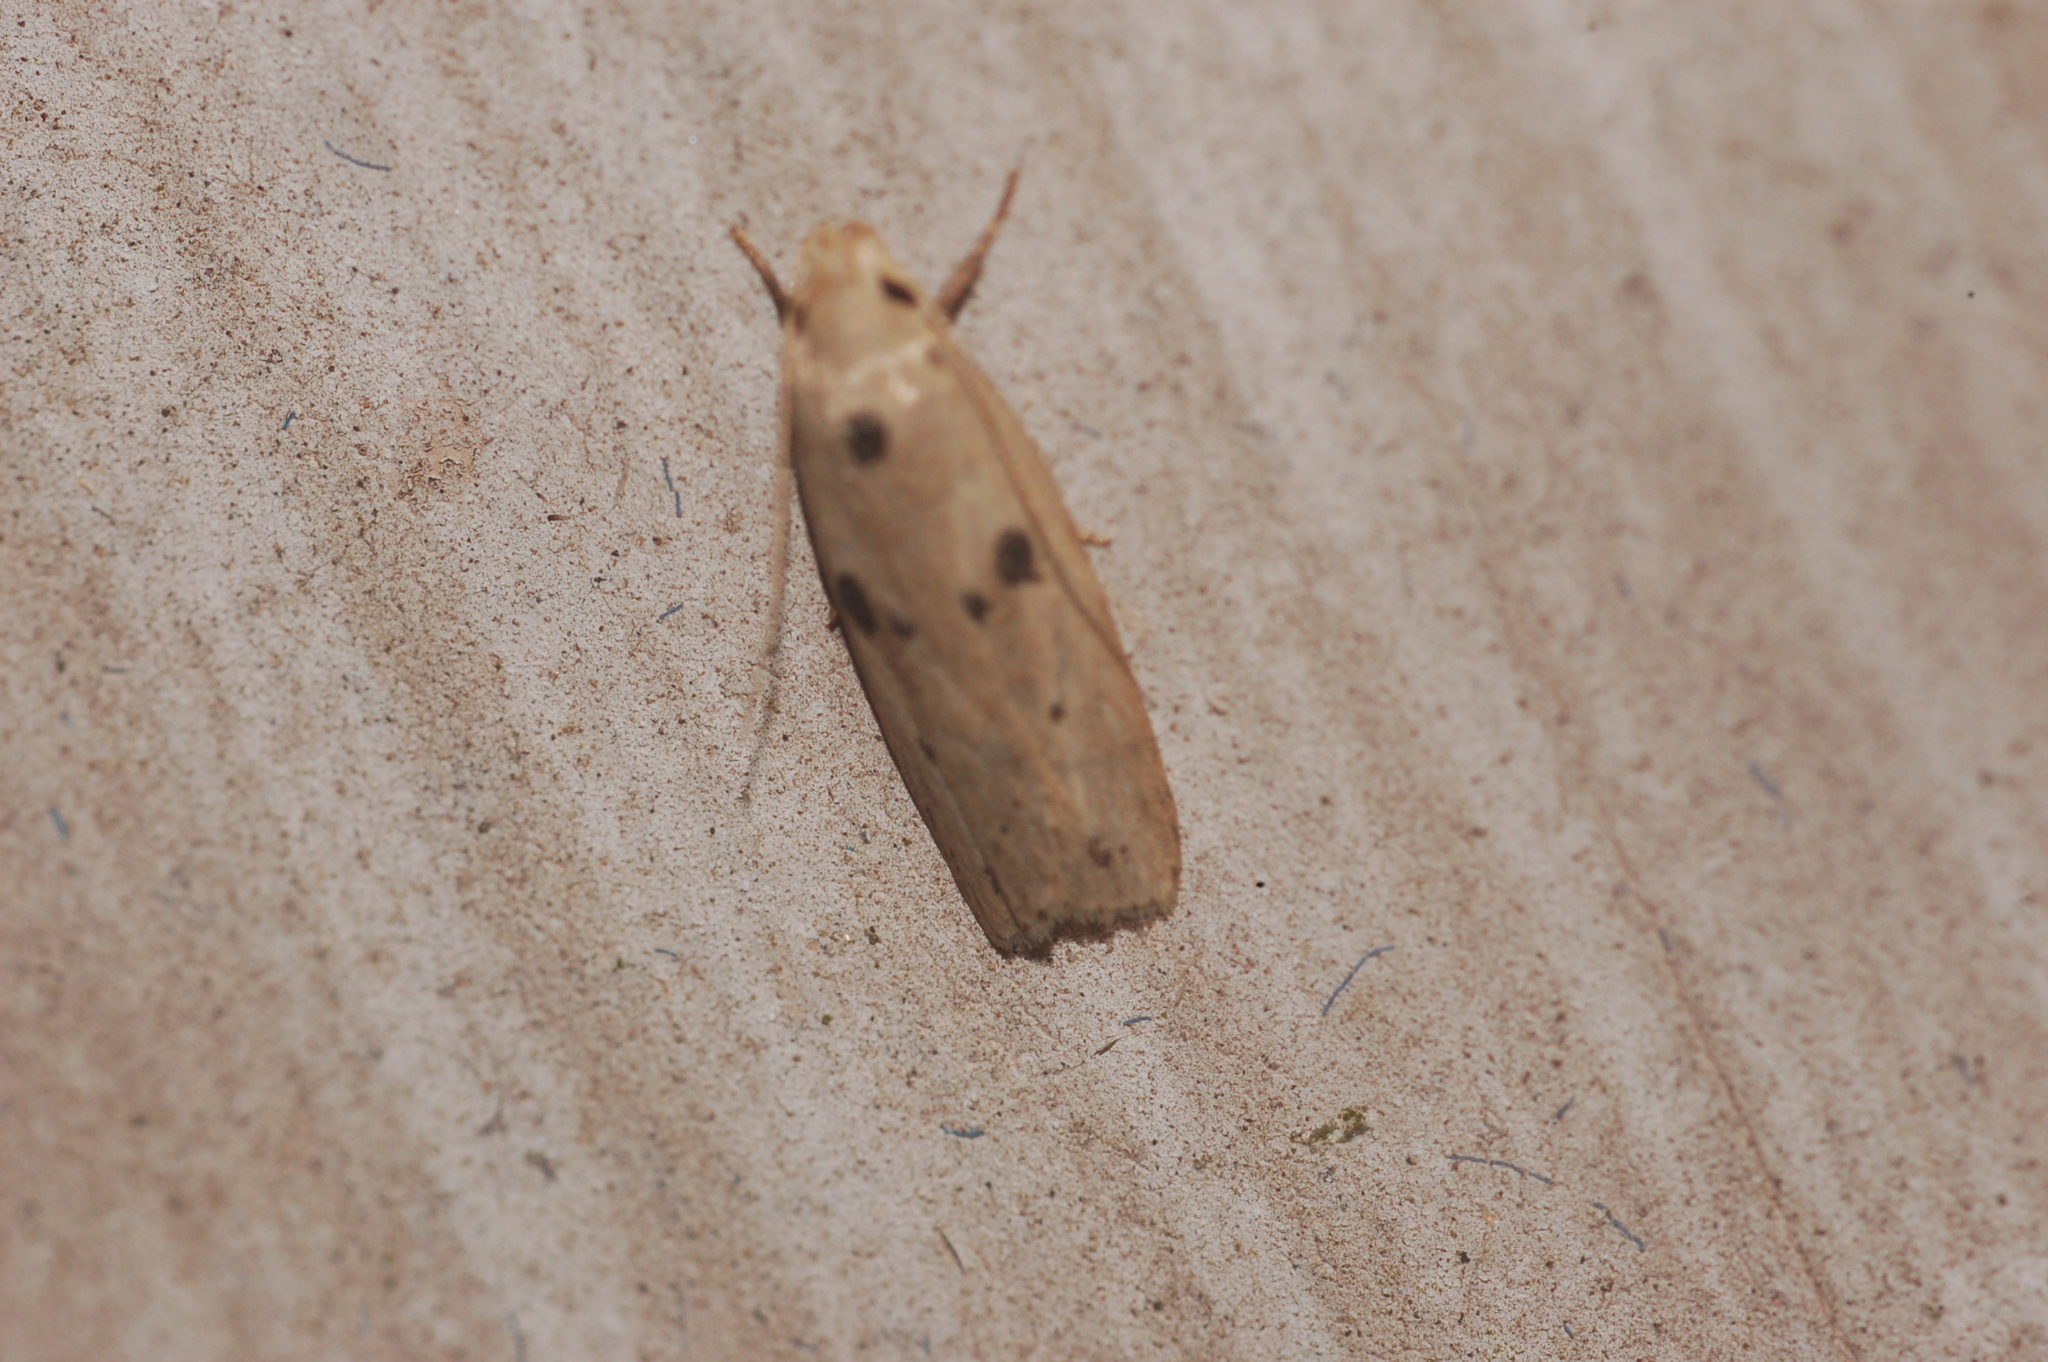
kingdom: Animalia
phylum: Arthropoda
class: Insecta
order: Lepidoptera
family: Peleopodidae
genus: Scythropiodes
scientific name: Scythropiodes issikii
